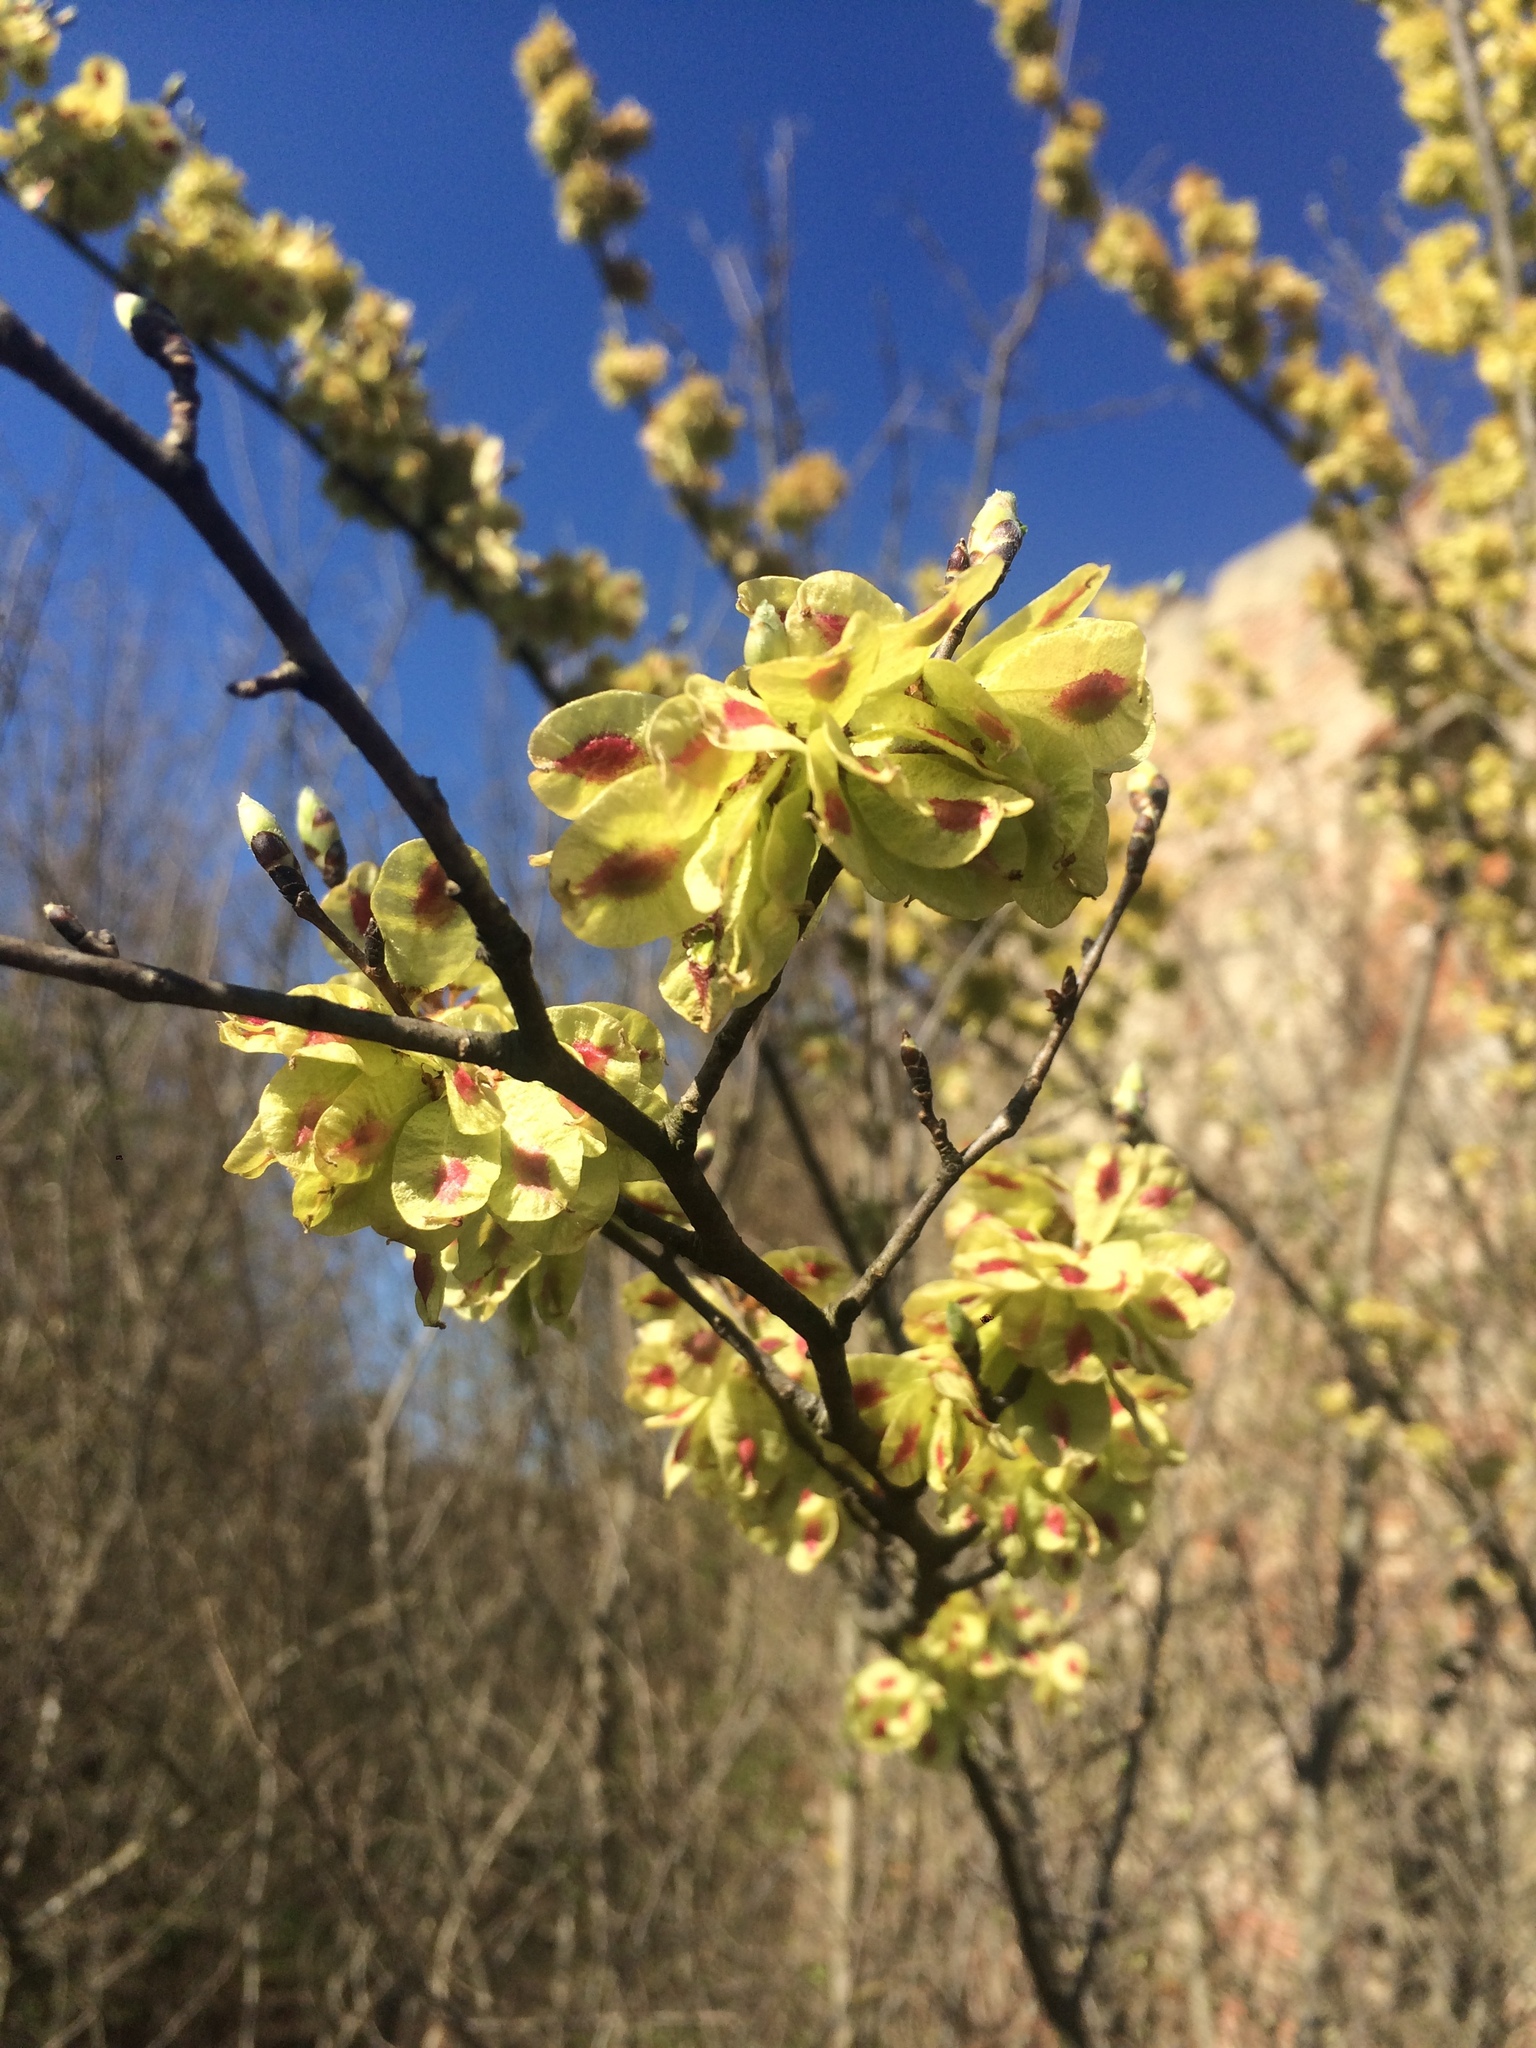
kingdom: Plantae
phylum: Tracheophyta
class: Magnoliopsida
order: Rosales
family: Ulmaceae
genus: Ulmus
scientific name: Ulmus minor
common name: Small-leaved elm
